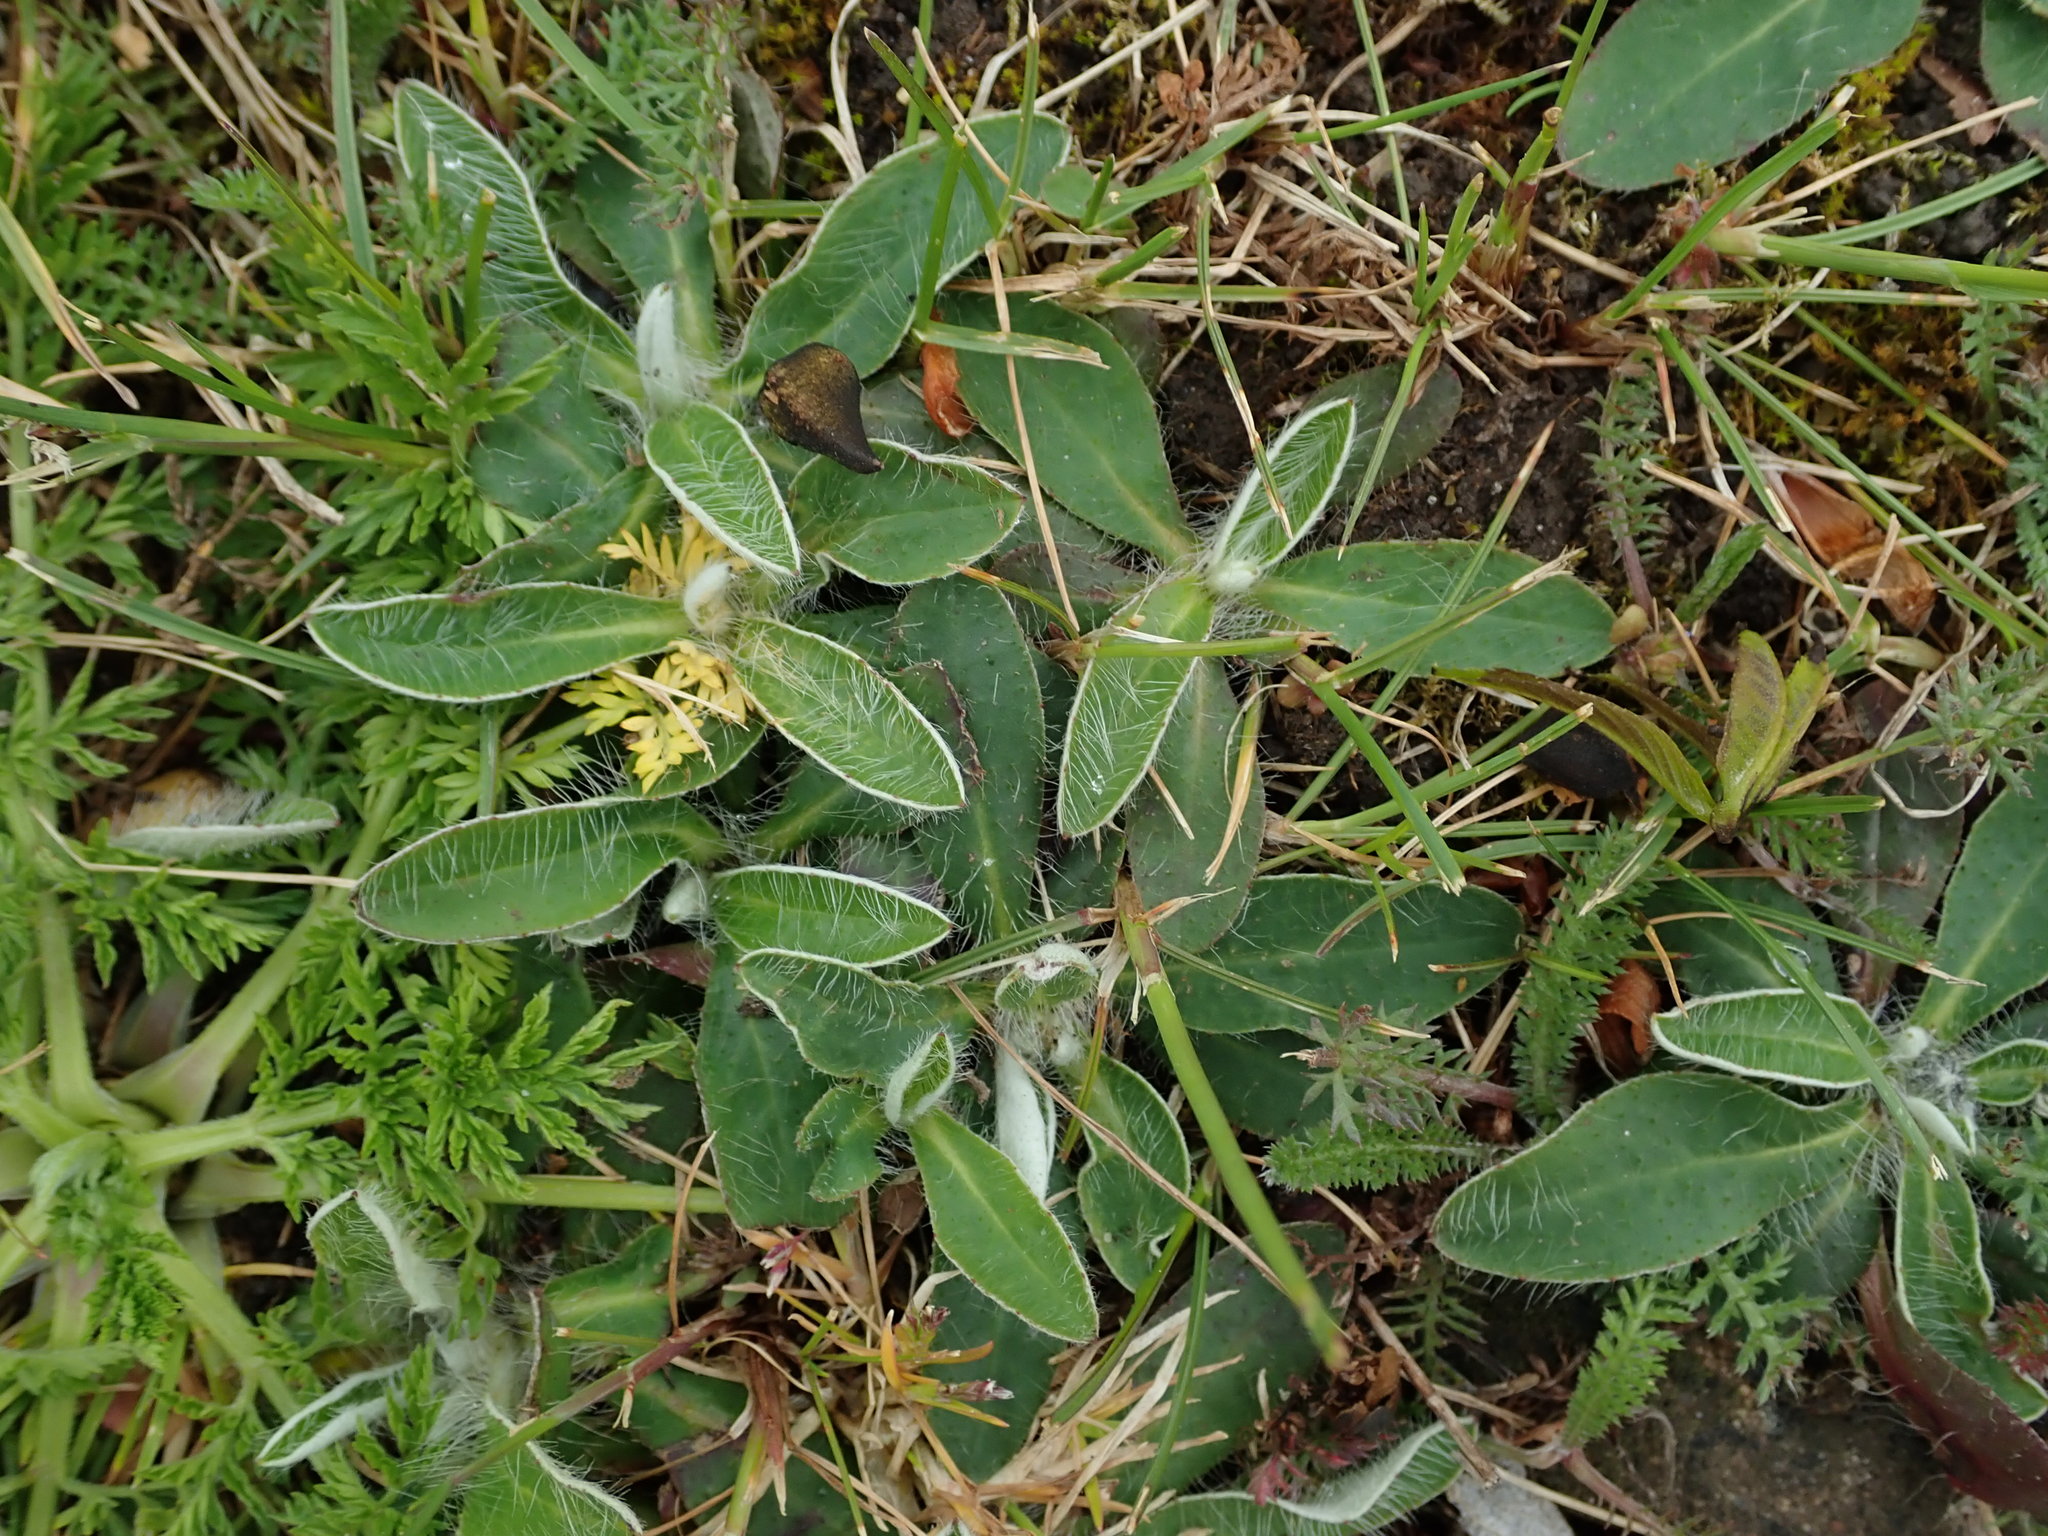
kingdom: Plantae
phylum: Tracheophyta
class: Magnoliopsida
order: Asterales
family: Asteraceae
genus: Pilosella
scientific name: Pilosella officinarum
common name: Mouse-ear hawkweed
